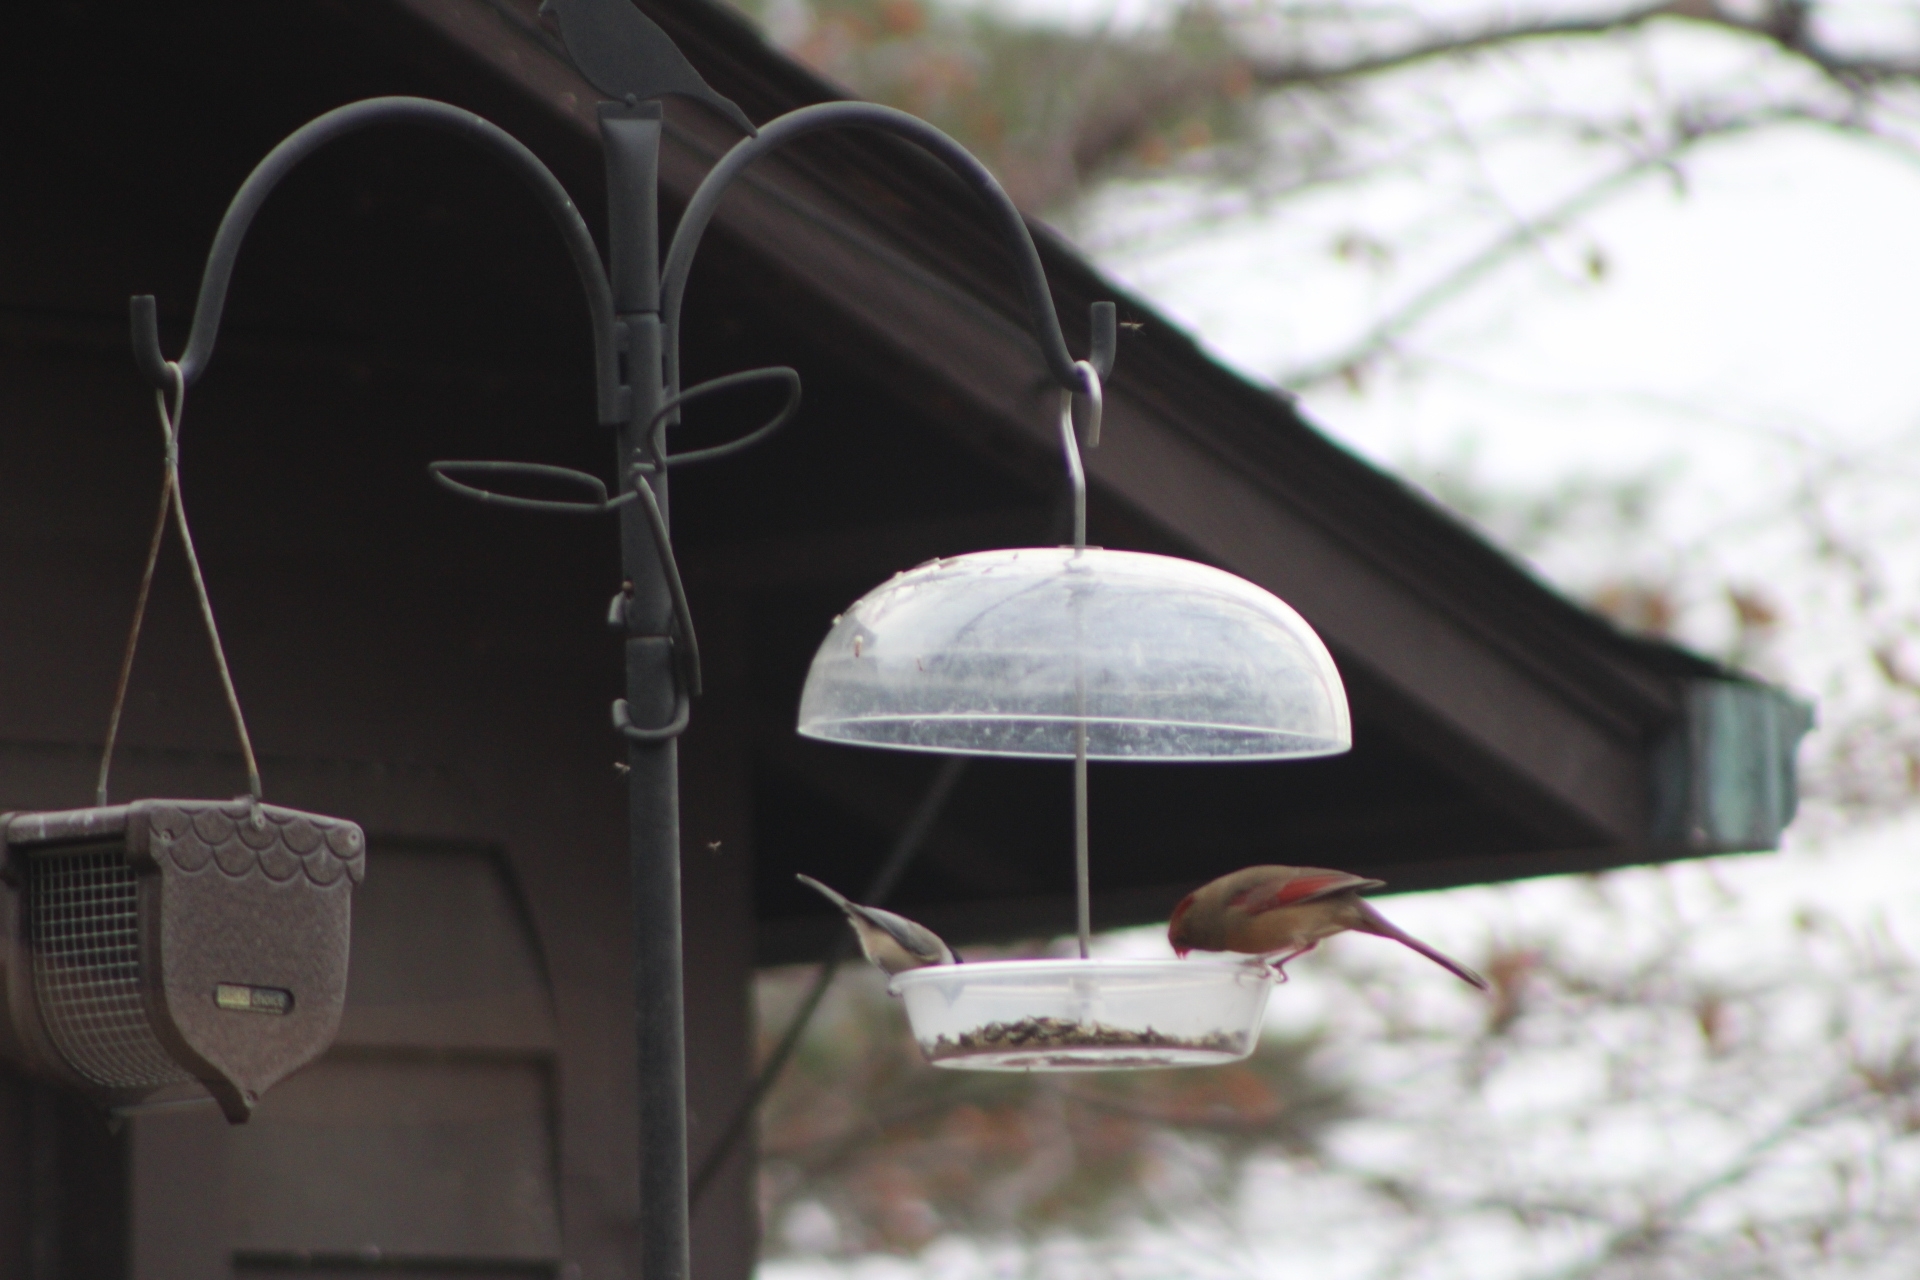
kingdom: Animalia
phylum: Chordata
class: Aves
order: Passeriformes
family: Paridae
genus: Poecile
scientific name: Poecile carolinensis
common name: Carolina chickadee
